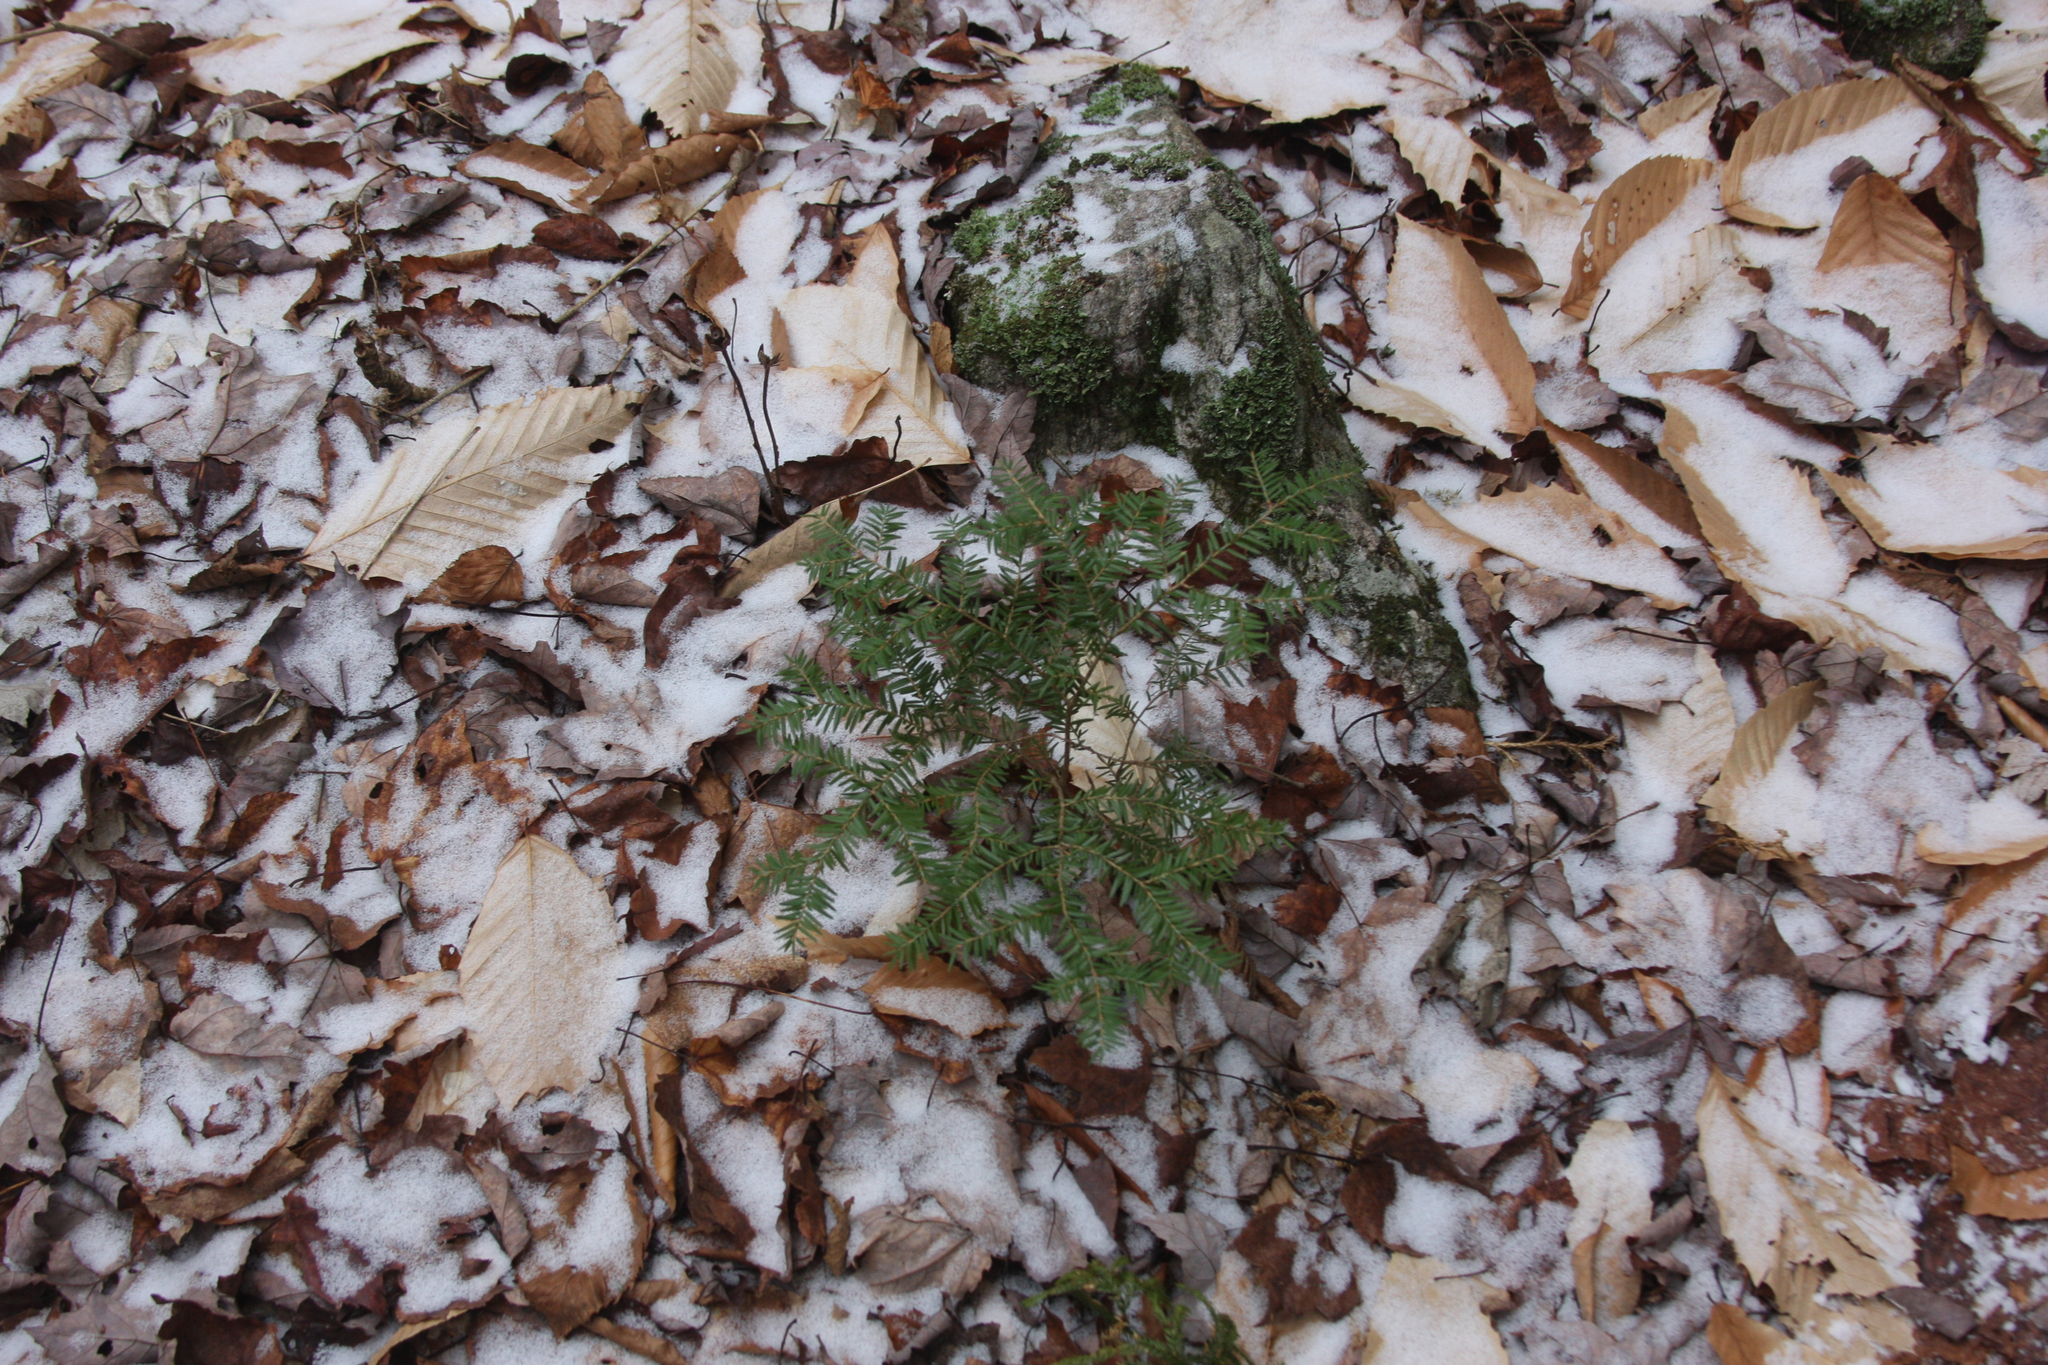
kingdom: Plantae
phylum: Tracheophyta
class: Pinopsida
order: Pinales
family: Pinaceae
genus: Tsuga
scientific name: Tsuga canadensis
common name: Eastern hemlock
